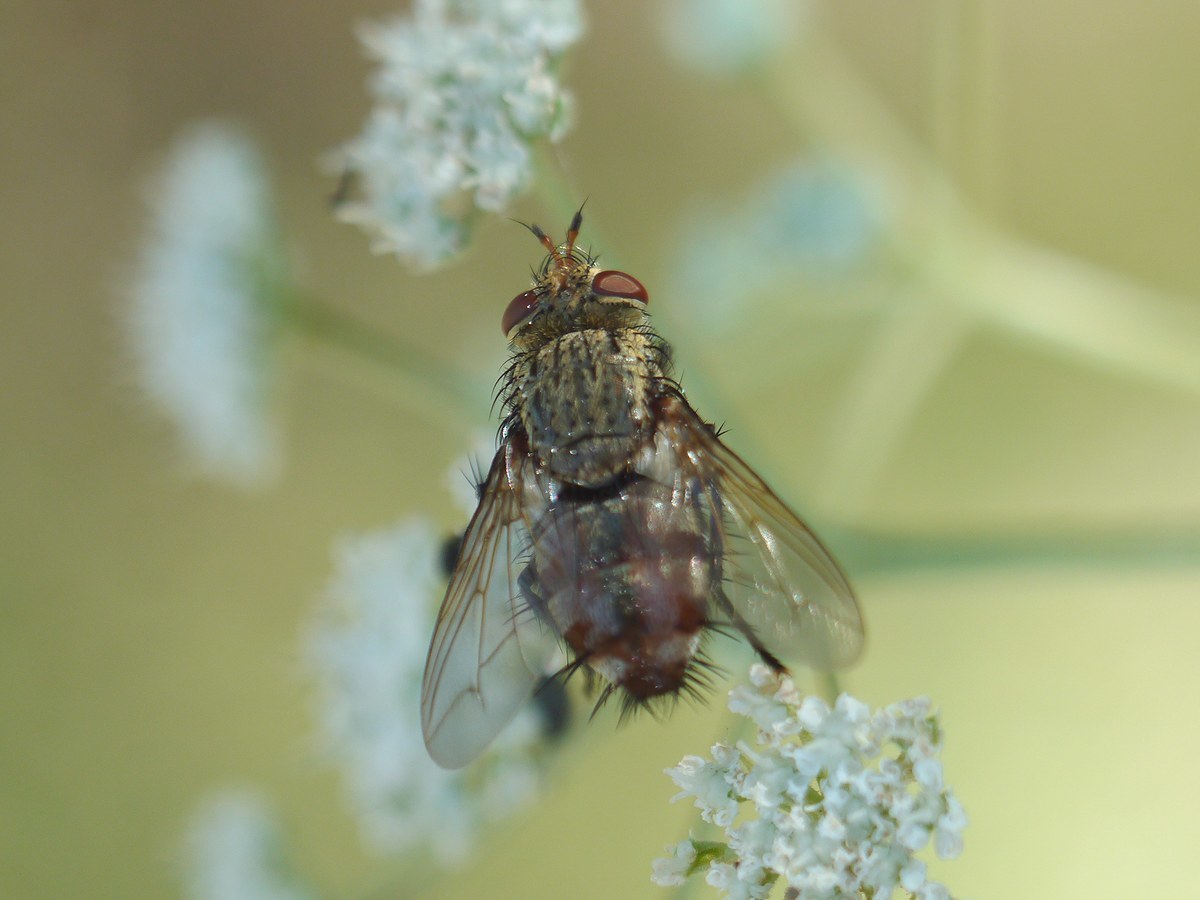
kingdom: Animalia
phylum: Arthropoda
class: Insecta
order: Diptera
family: Tachinidae
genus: Peleteria
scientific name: Peleteria javana
